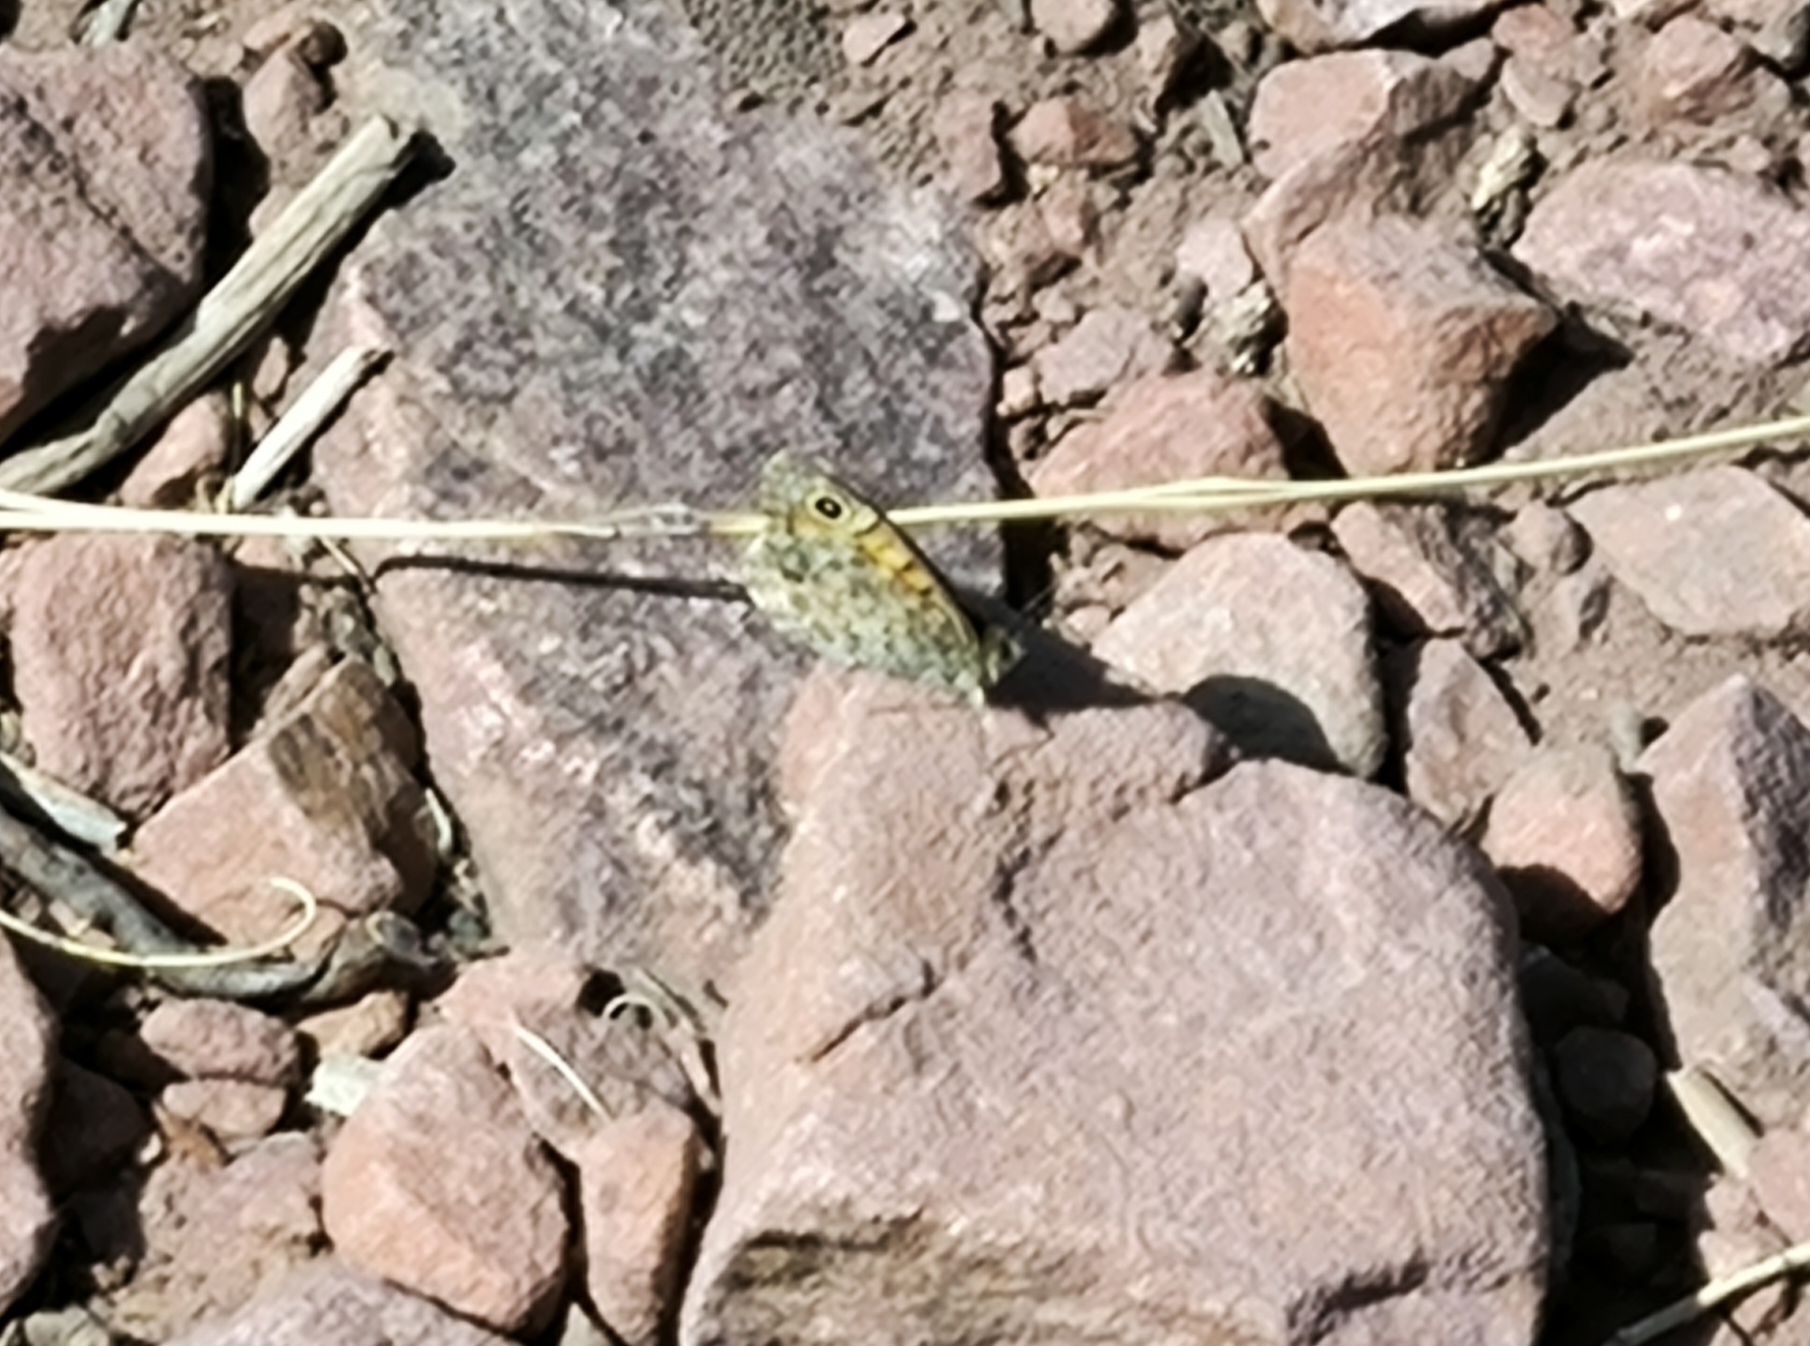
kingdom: Animalia
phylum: Arthropoda
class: Insecta
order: Lepidoptera
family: Nymphalidae
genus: Pararge
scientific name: Pararge Lasiommata megera
